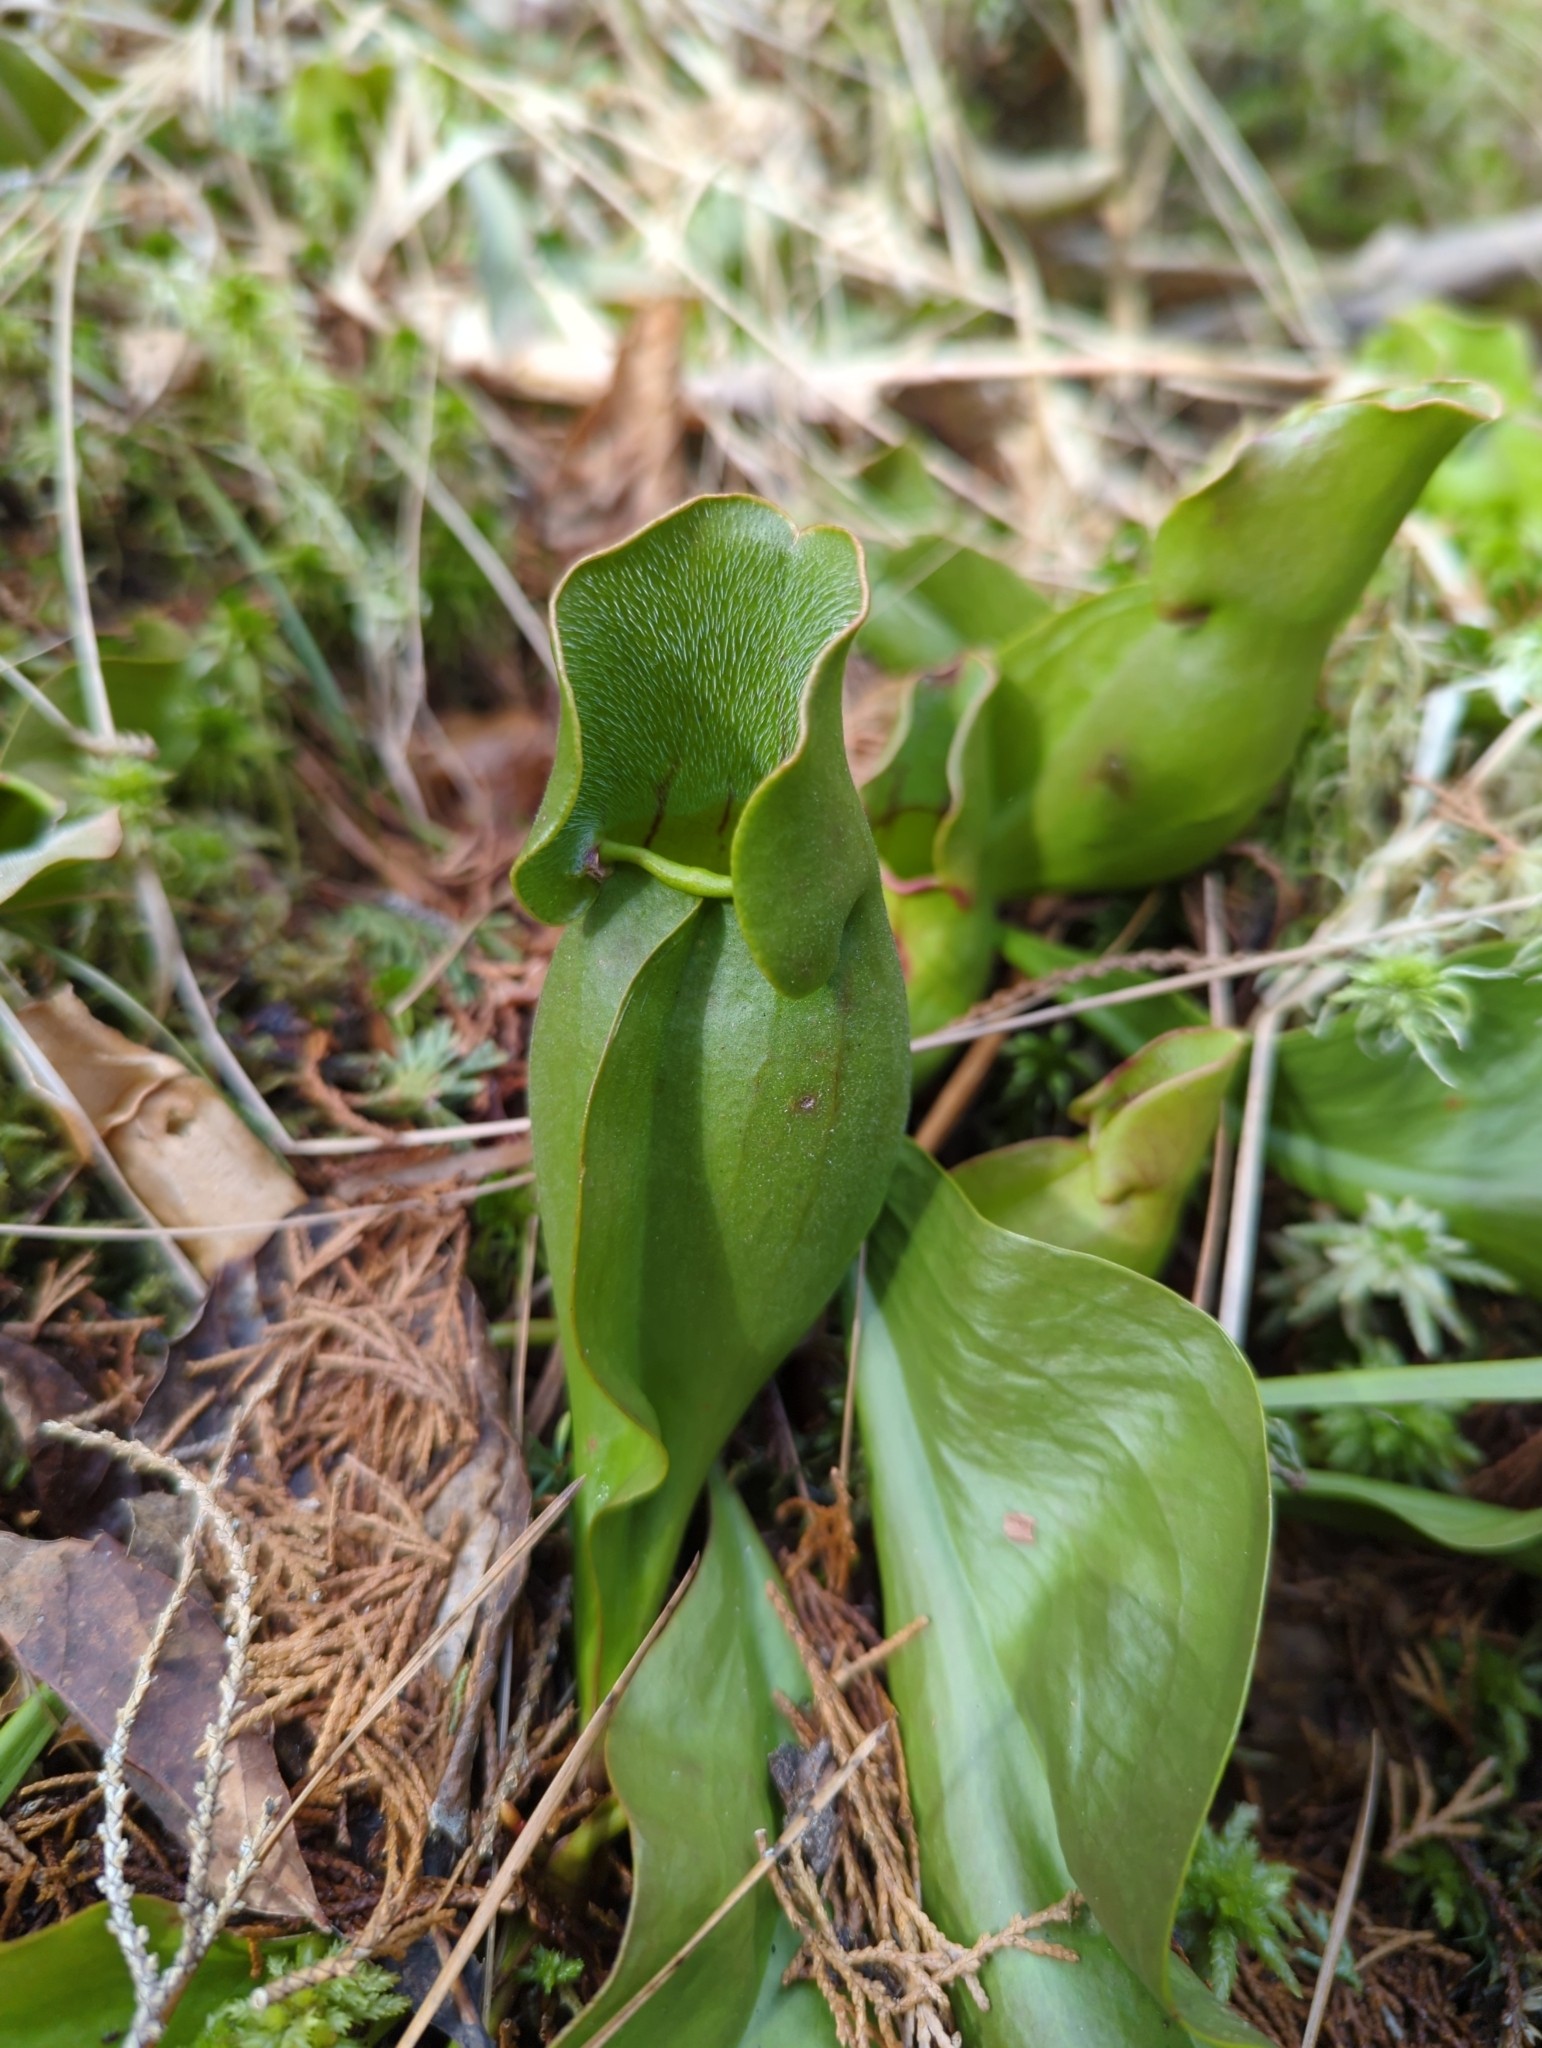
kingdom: Plantae
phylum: Tracheophyta
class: Magnoliopsida
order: Ericales
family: Sarraceniaceae
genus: Sarracenia
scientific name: Sarracenia purpurea
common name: Pitcherplant
